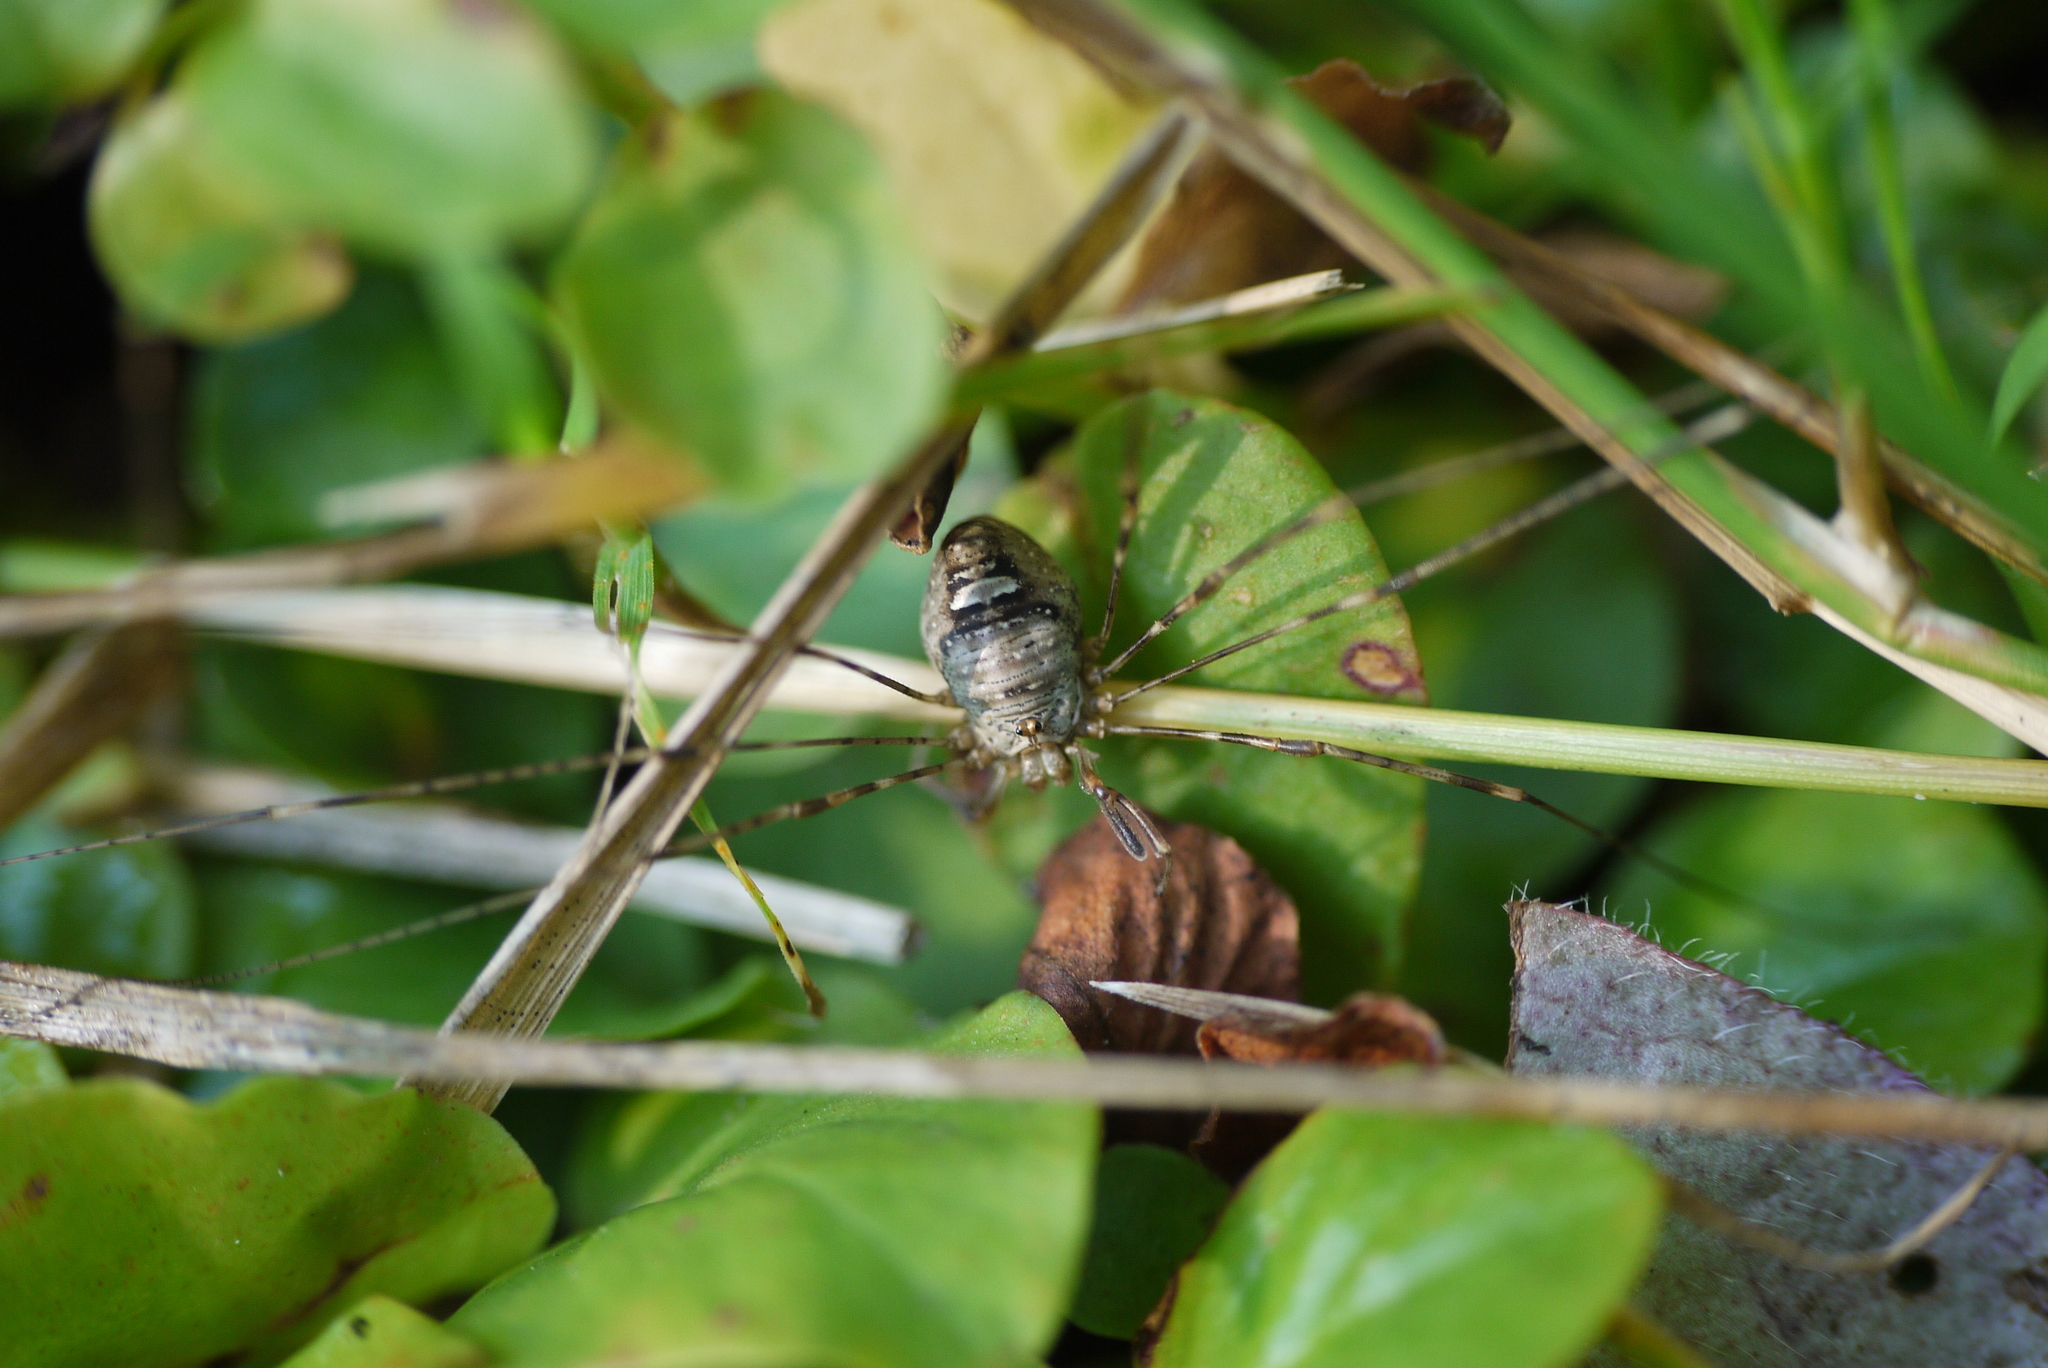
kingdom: Animalia
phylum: Arthropoda
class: Arachnida
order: Opiliones
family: Phalangiidae
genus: Dicranopalpus
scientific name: Dicranopalpus ramosus
